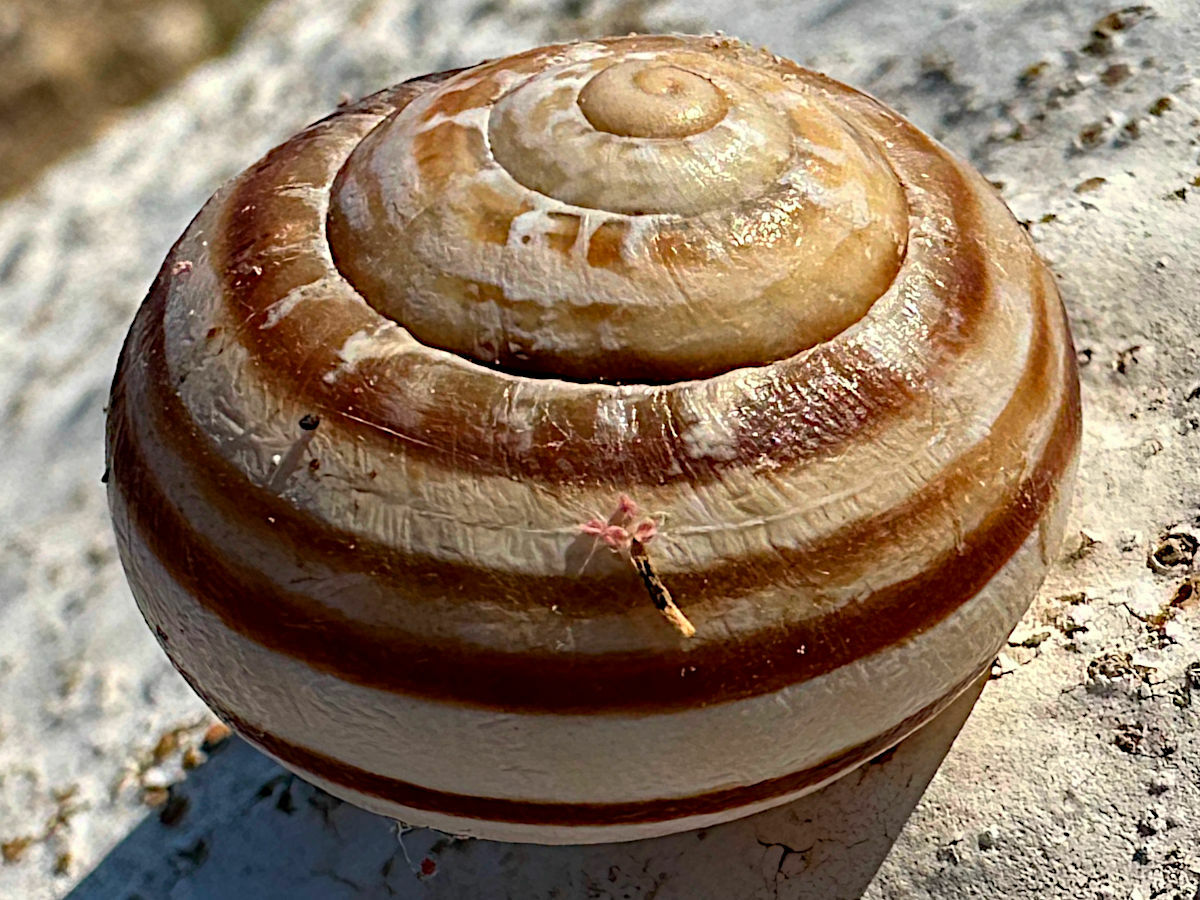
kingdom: Animalia
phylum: Mollusca
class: Gastropoda
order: Stylommatophora
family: Helicidae
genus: Eobania
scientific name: Eobania vermiculata
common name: Chocolateband snail
